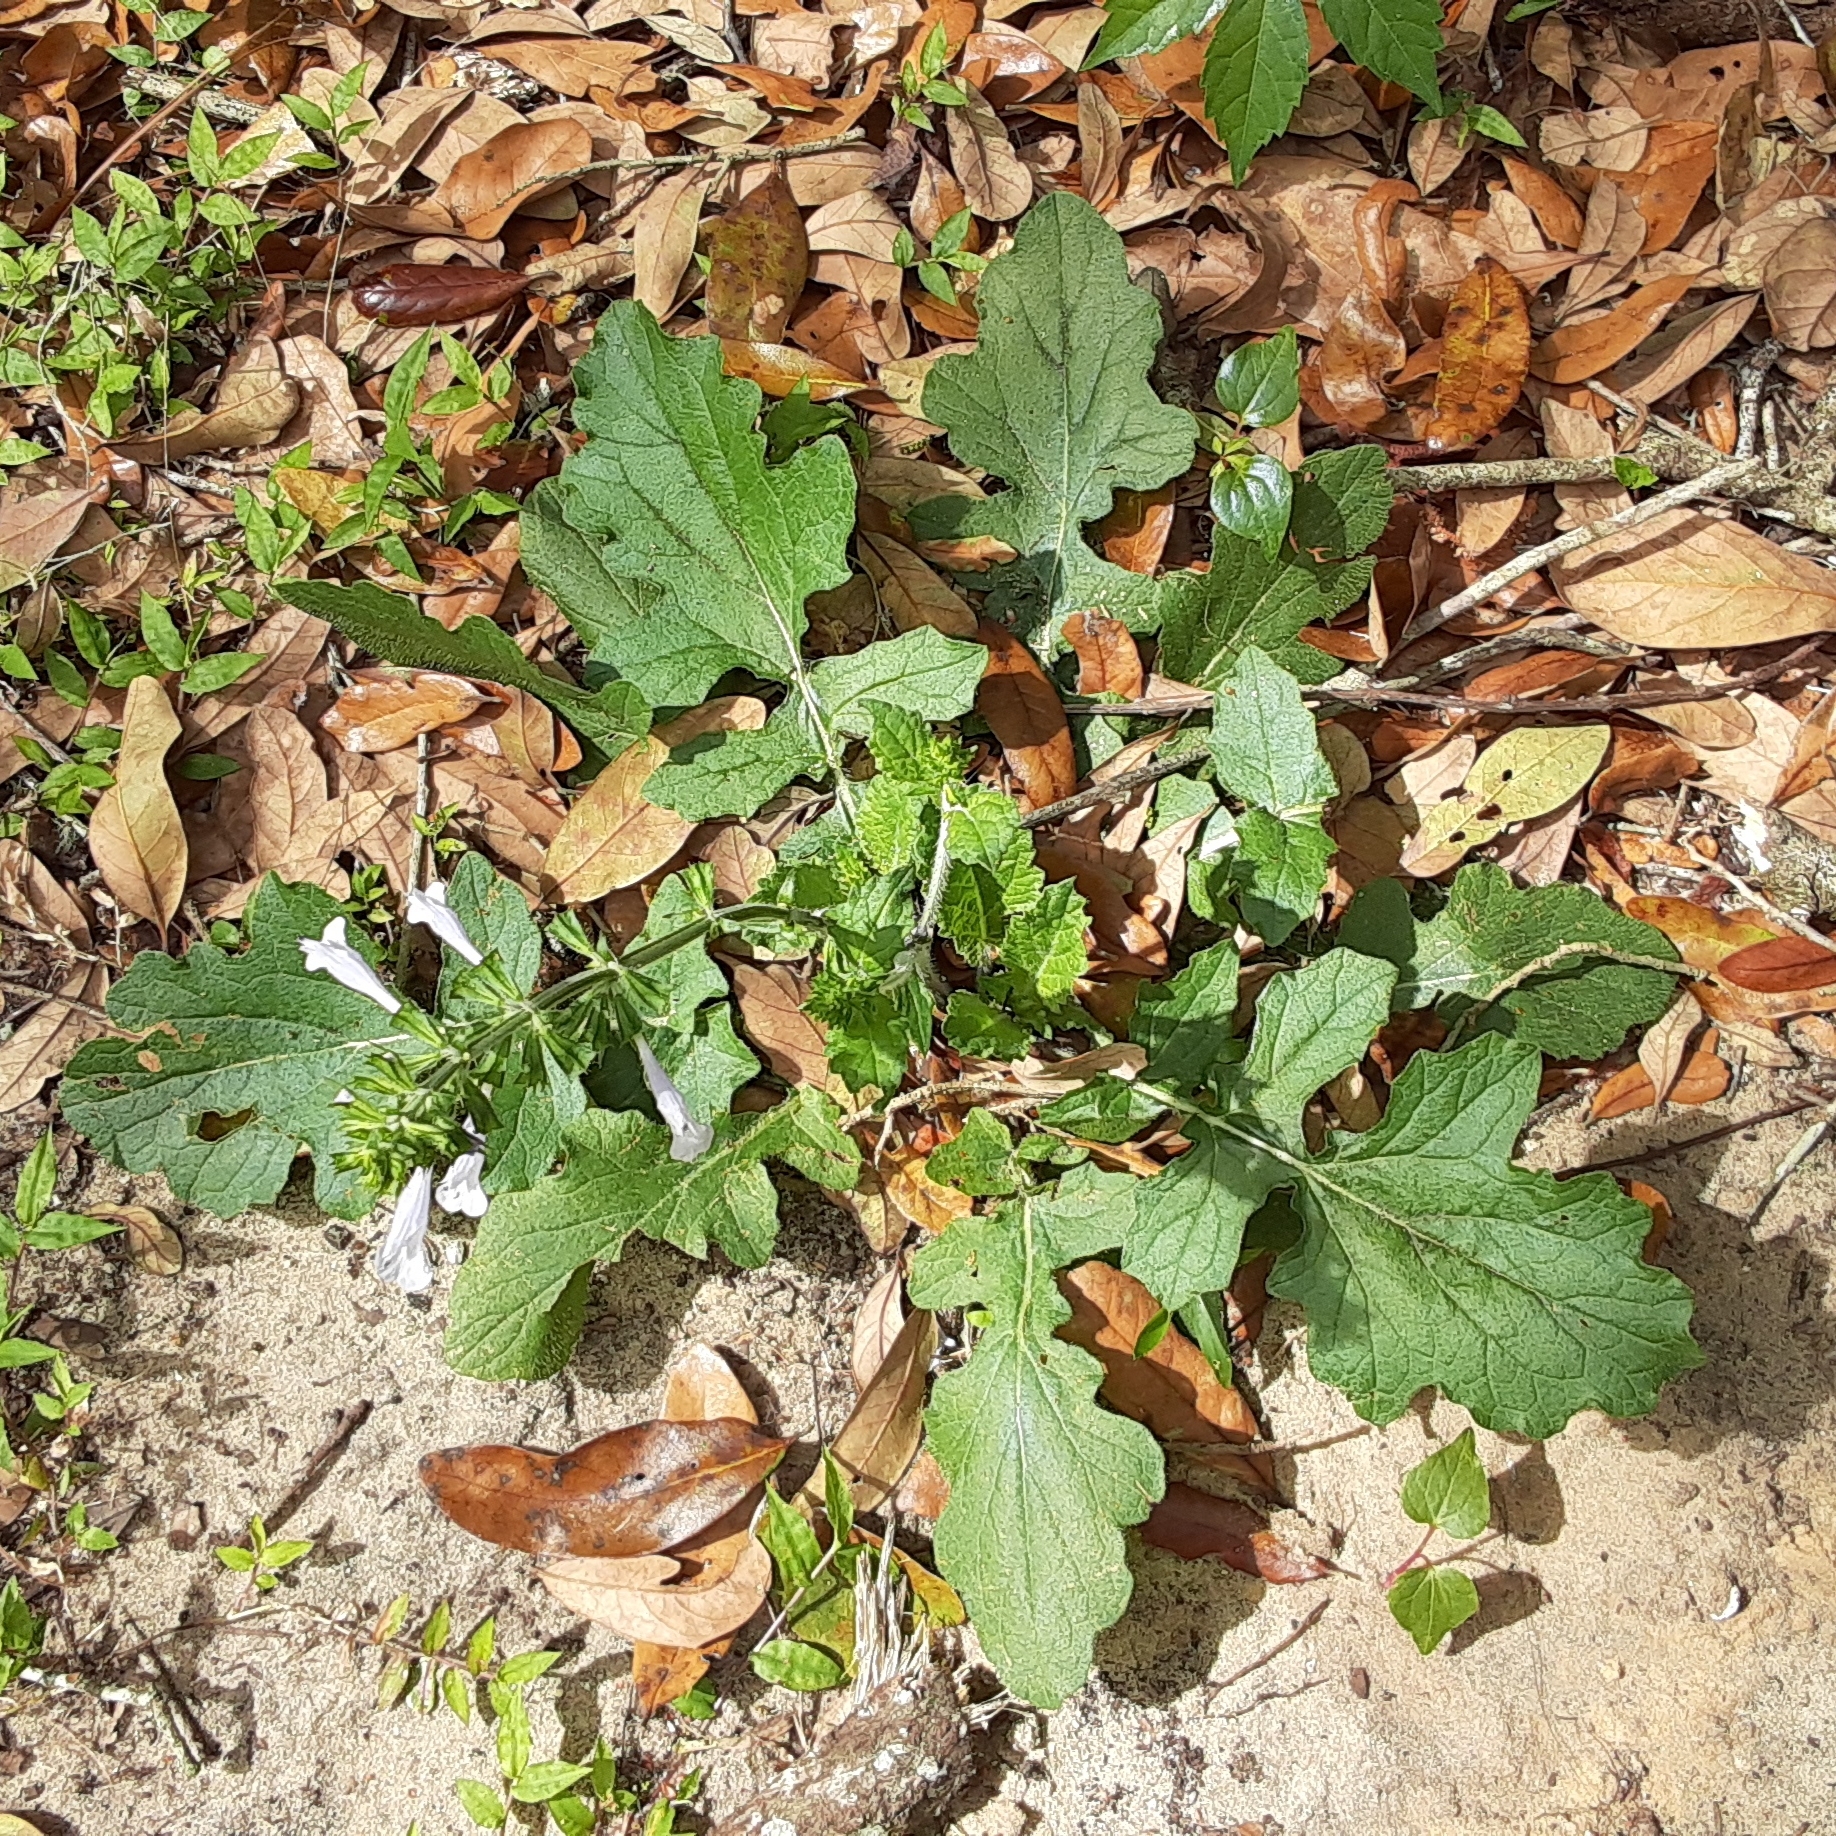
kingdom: Plantae
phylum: Tracheophyta
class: Magnoliopsida
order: Lamiales
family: Lamiaceae
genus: Salvia
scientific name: Salvia lyrata
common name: Cancerweed
